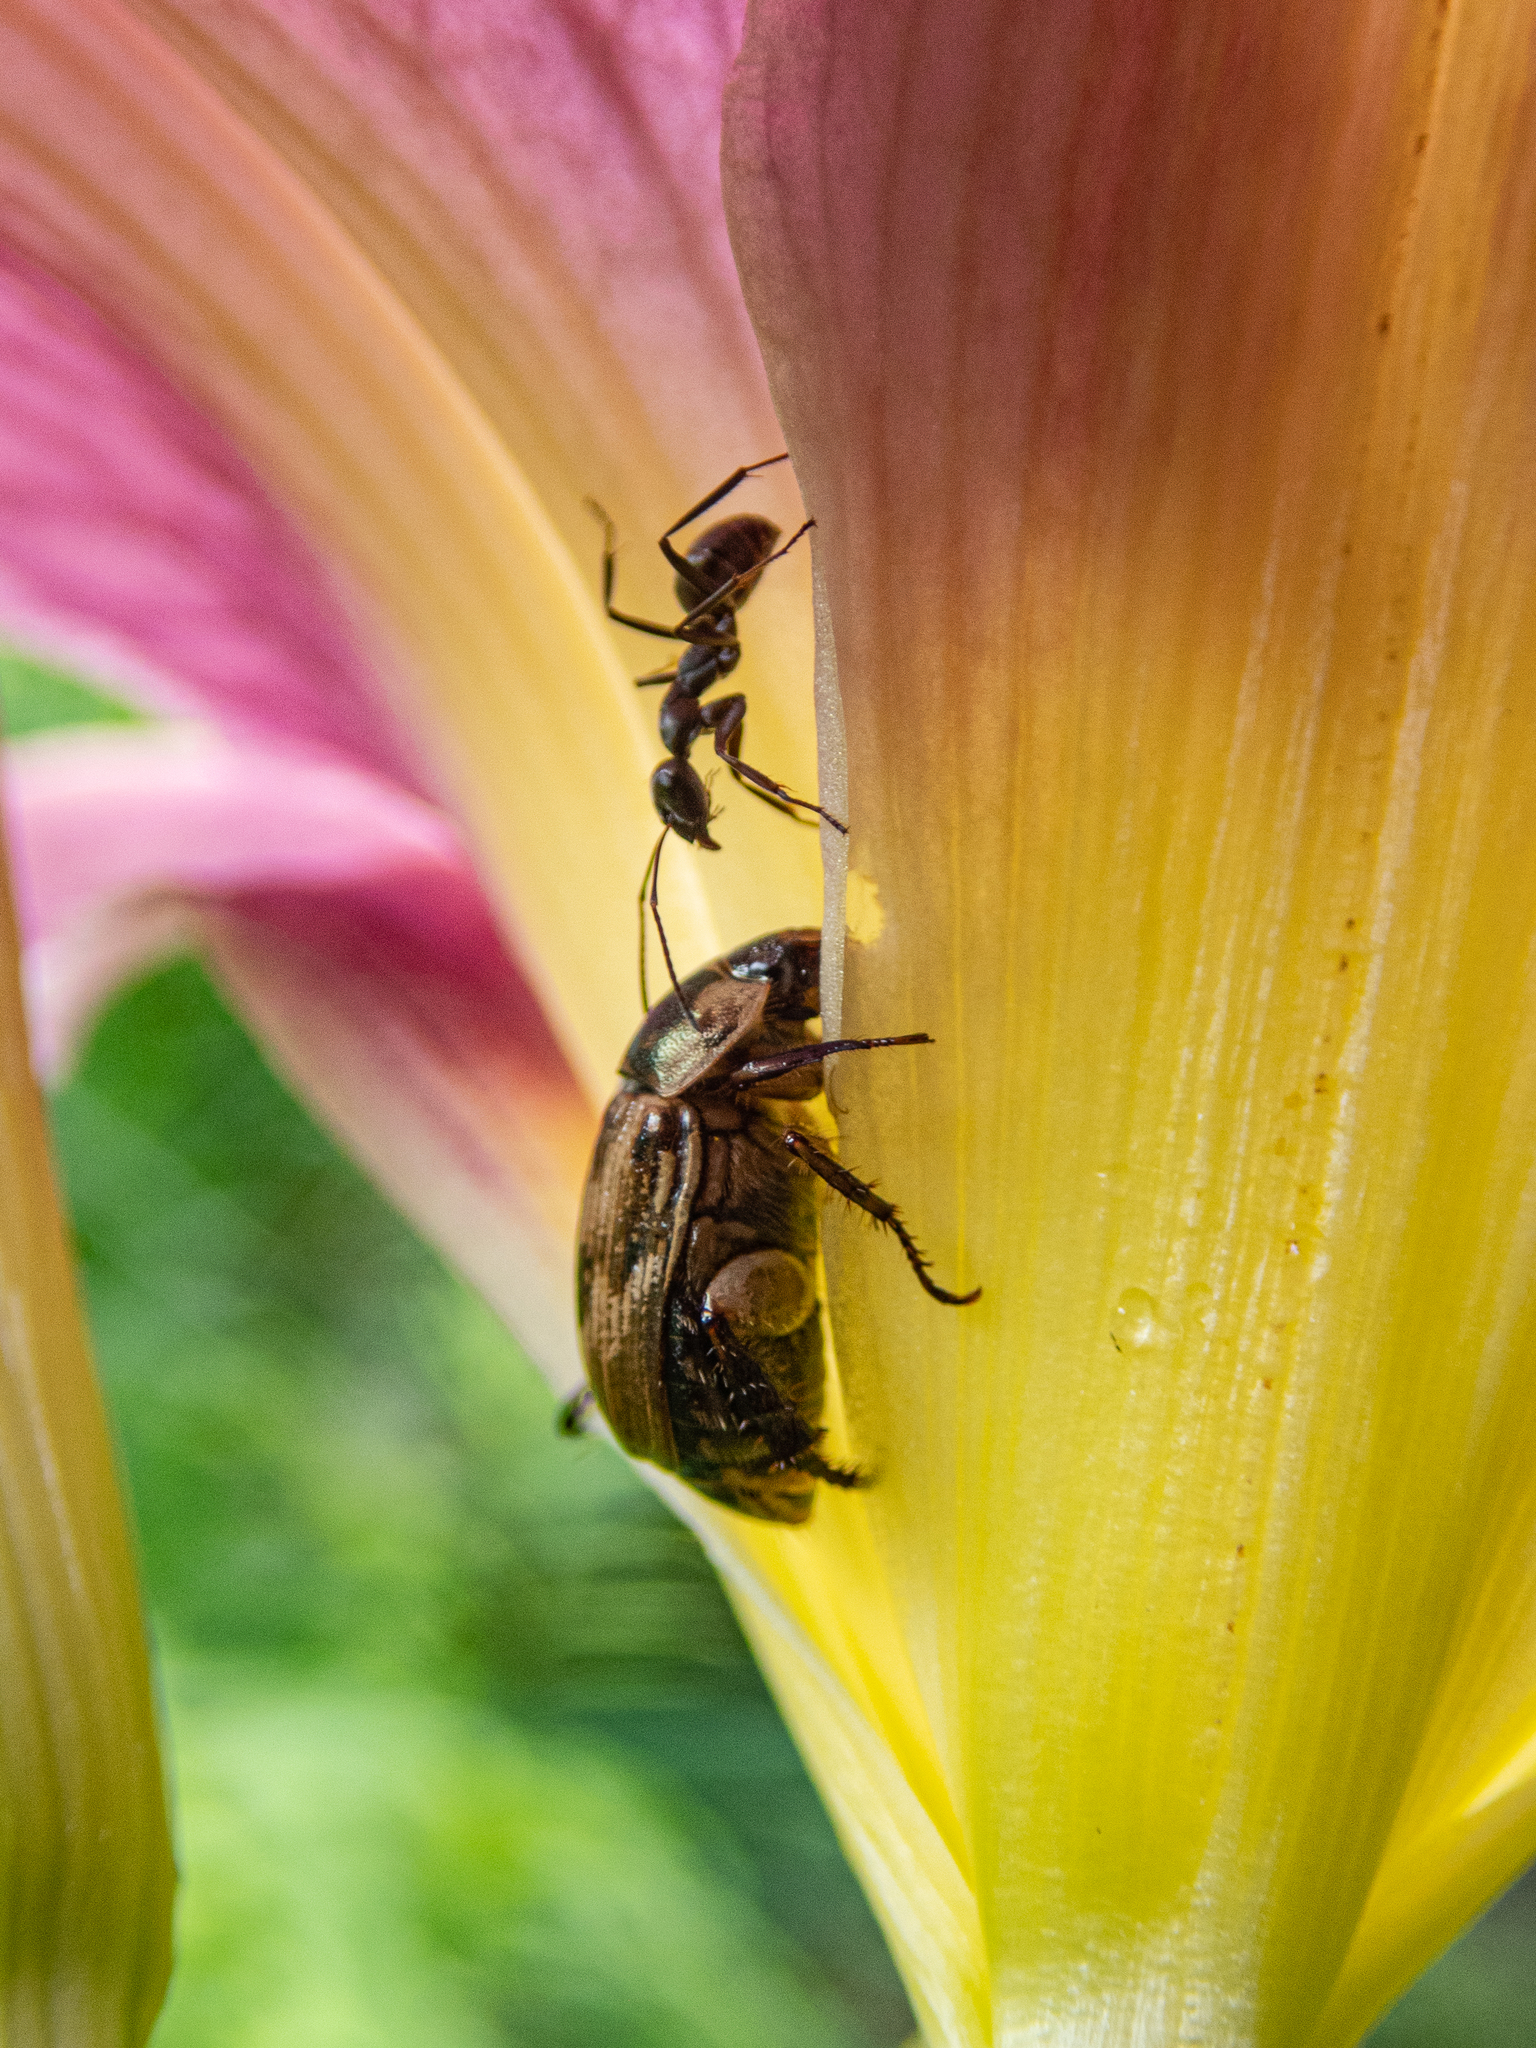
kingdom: Animalia
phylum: Arthropoda
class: Insecta
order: Coleoptera
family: Scarabaeidae
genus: Exomala
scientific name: Exomala orientalis
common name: Oriental beetle
